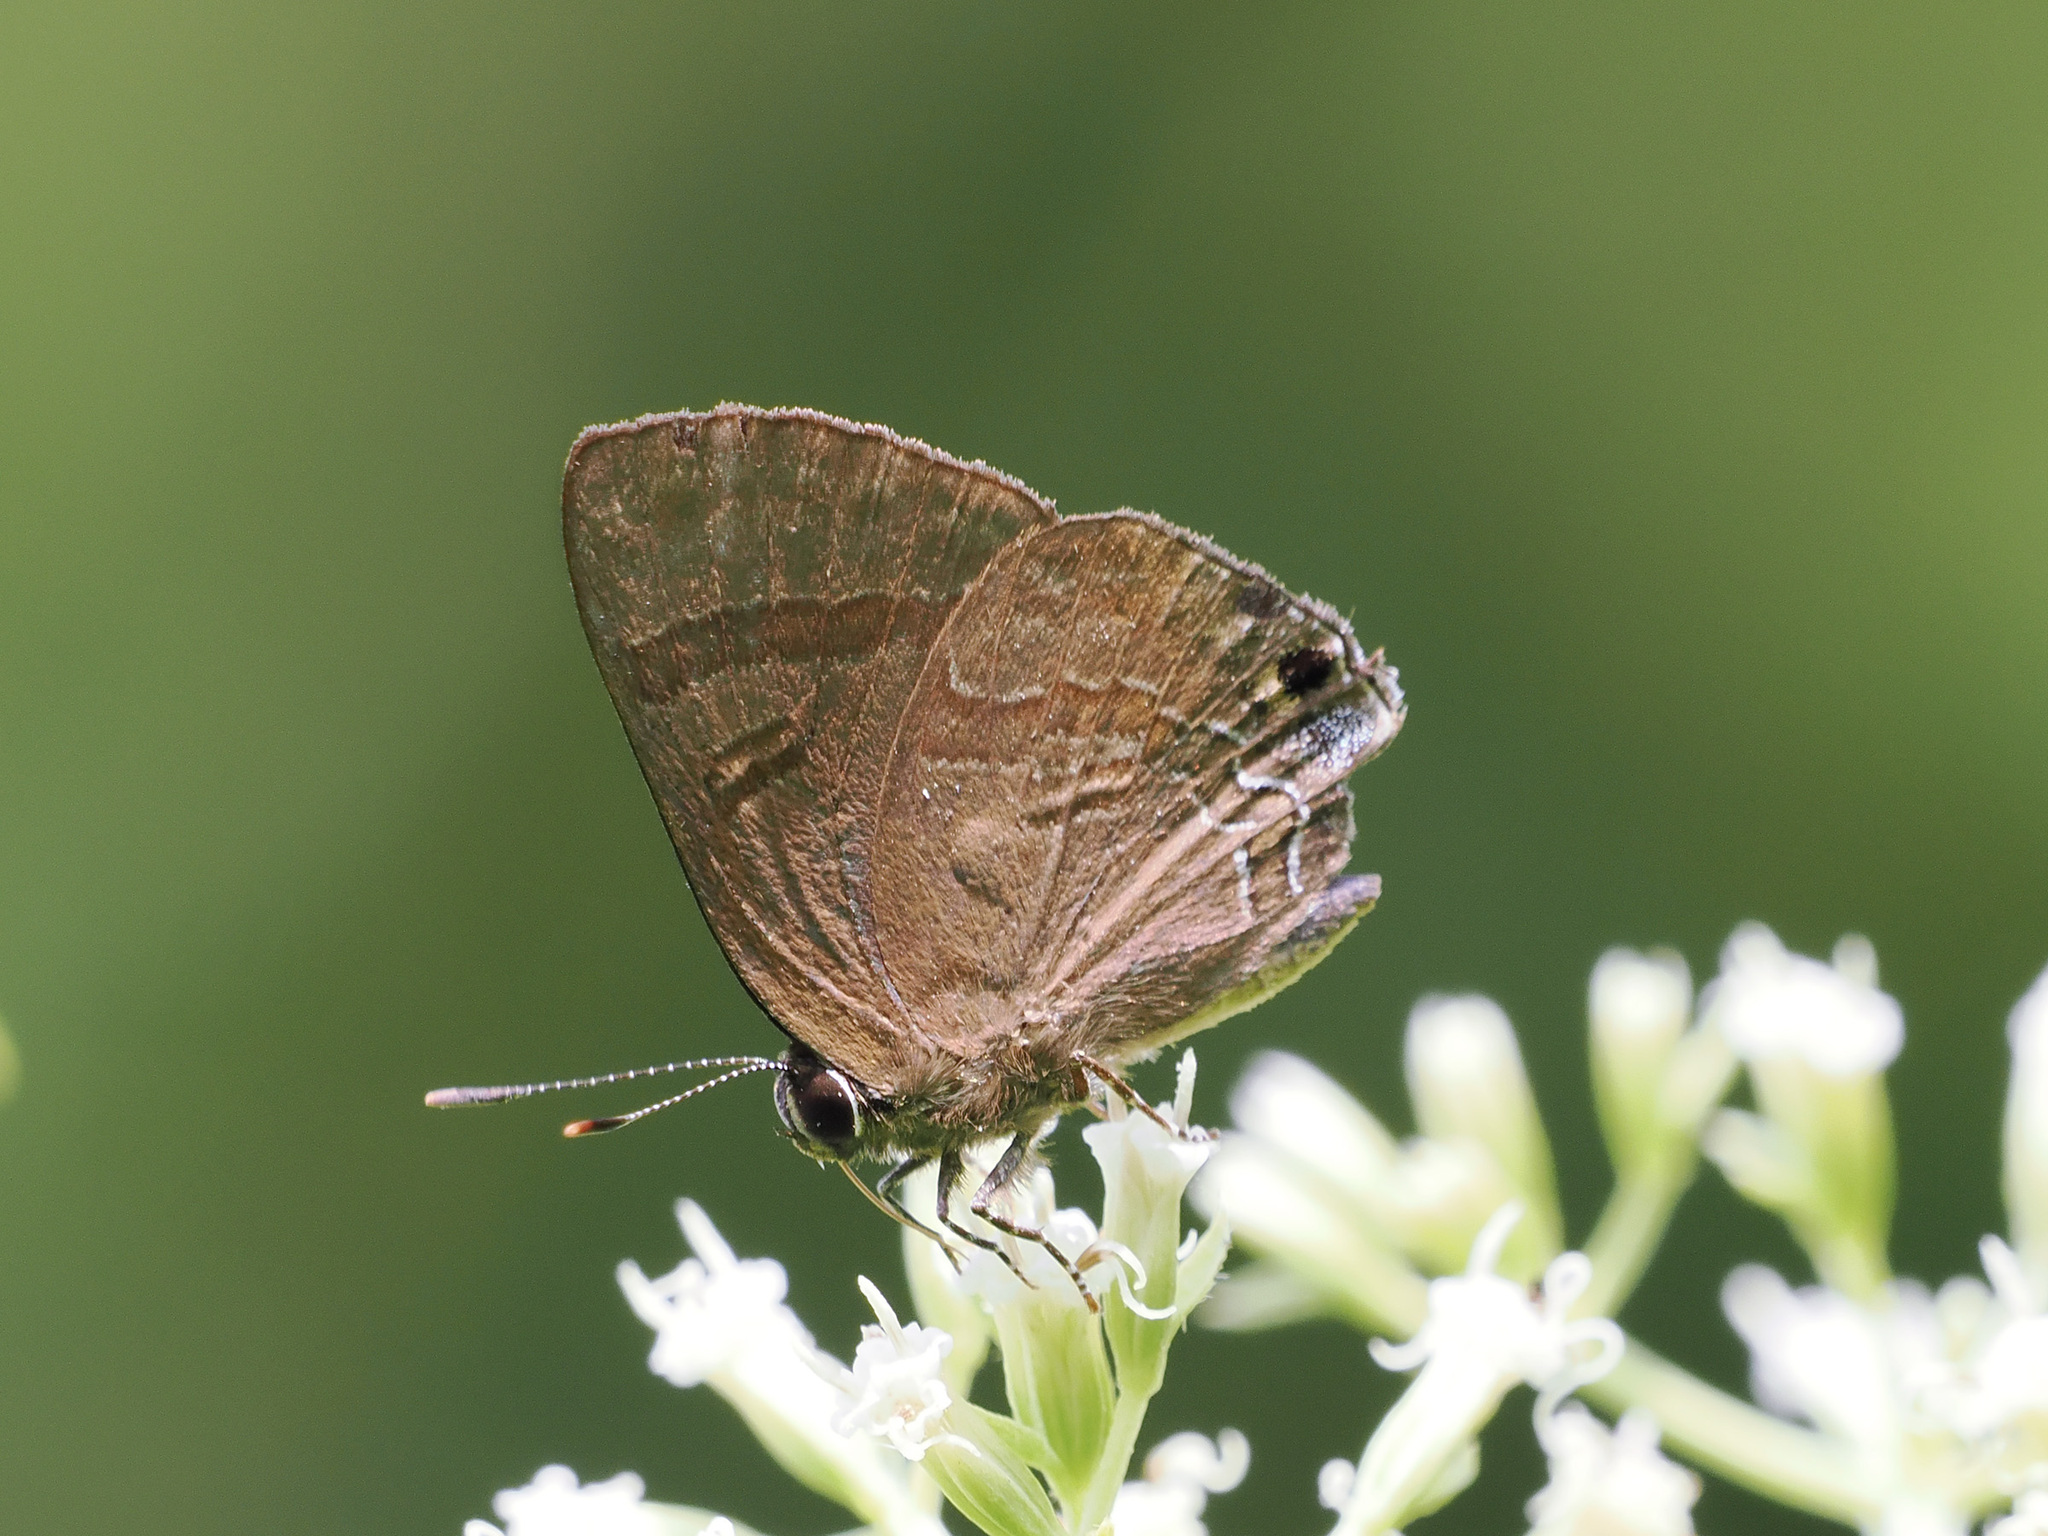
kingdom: Animalia
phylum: Arthropoda
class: Insecta
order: Lepidoptera
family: Lycaenidae
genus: Rapala
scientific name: Rapala varuna
